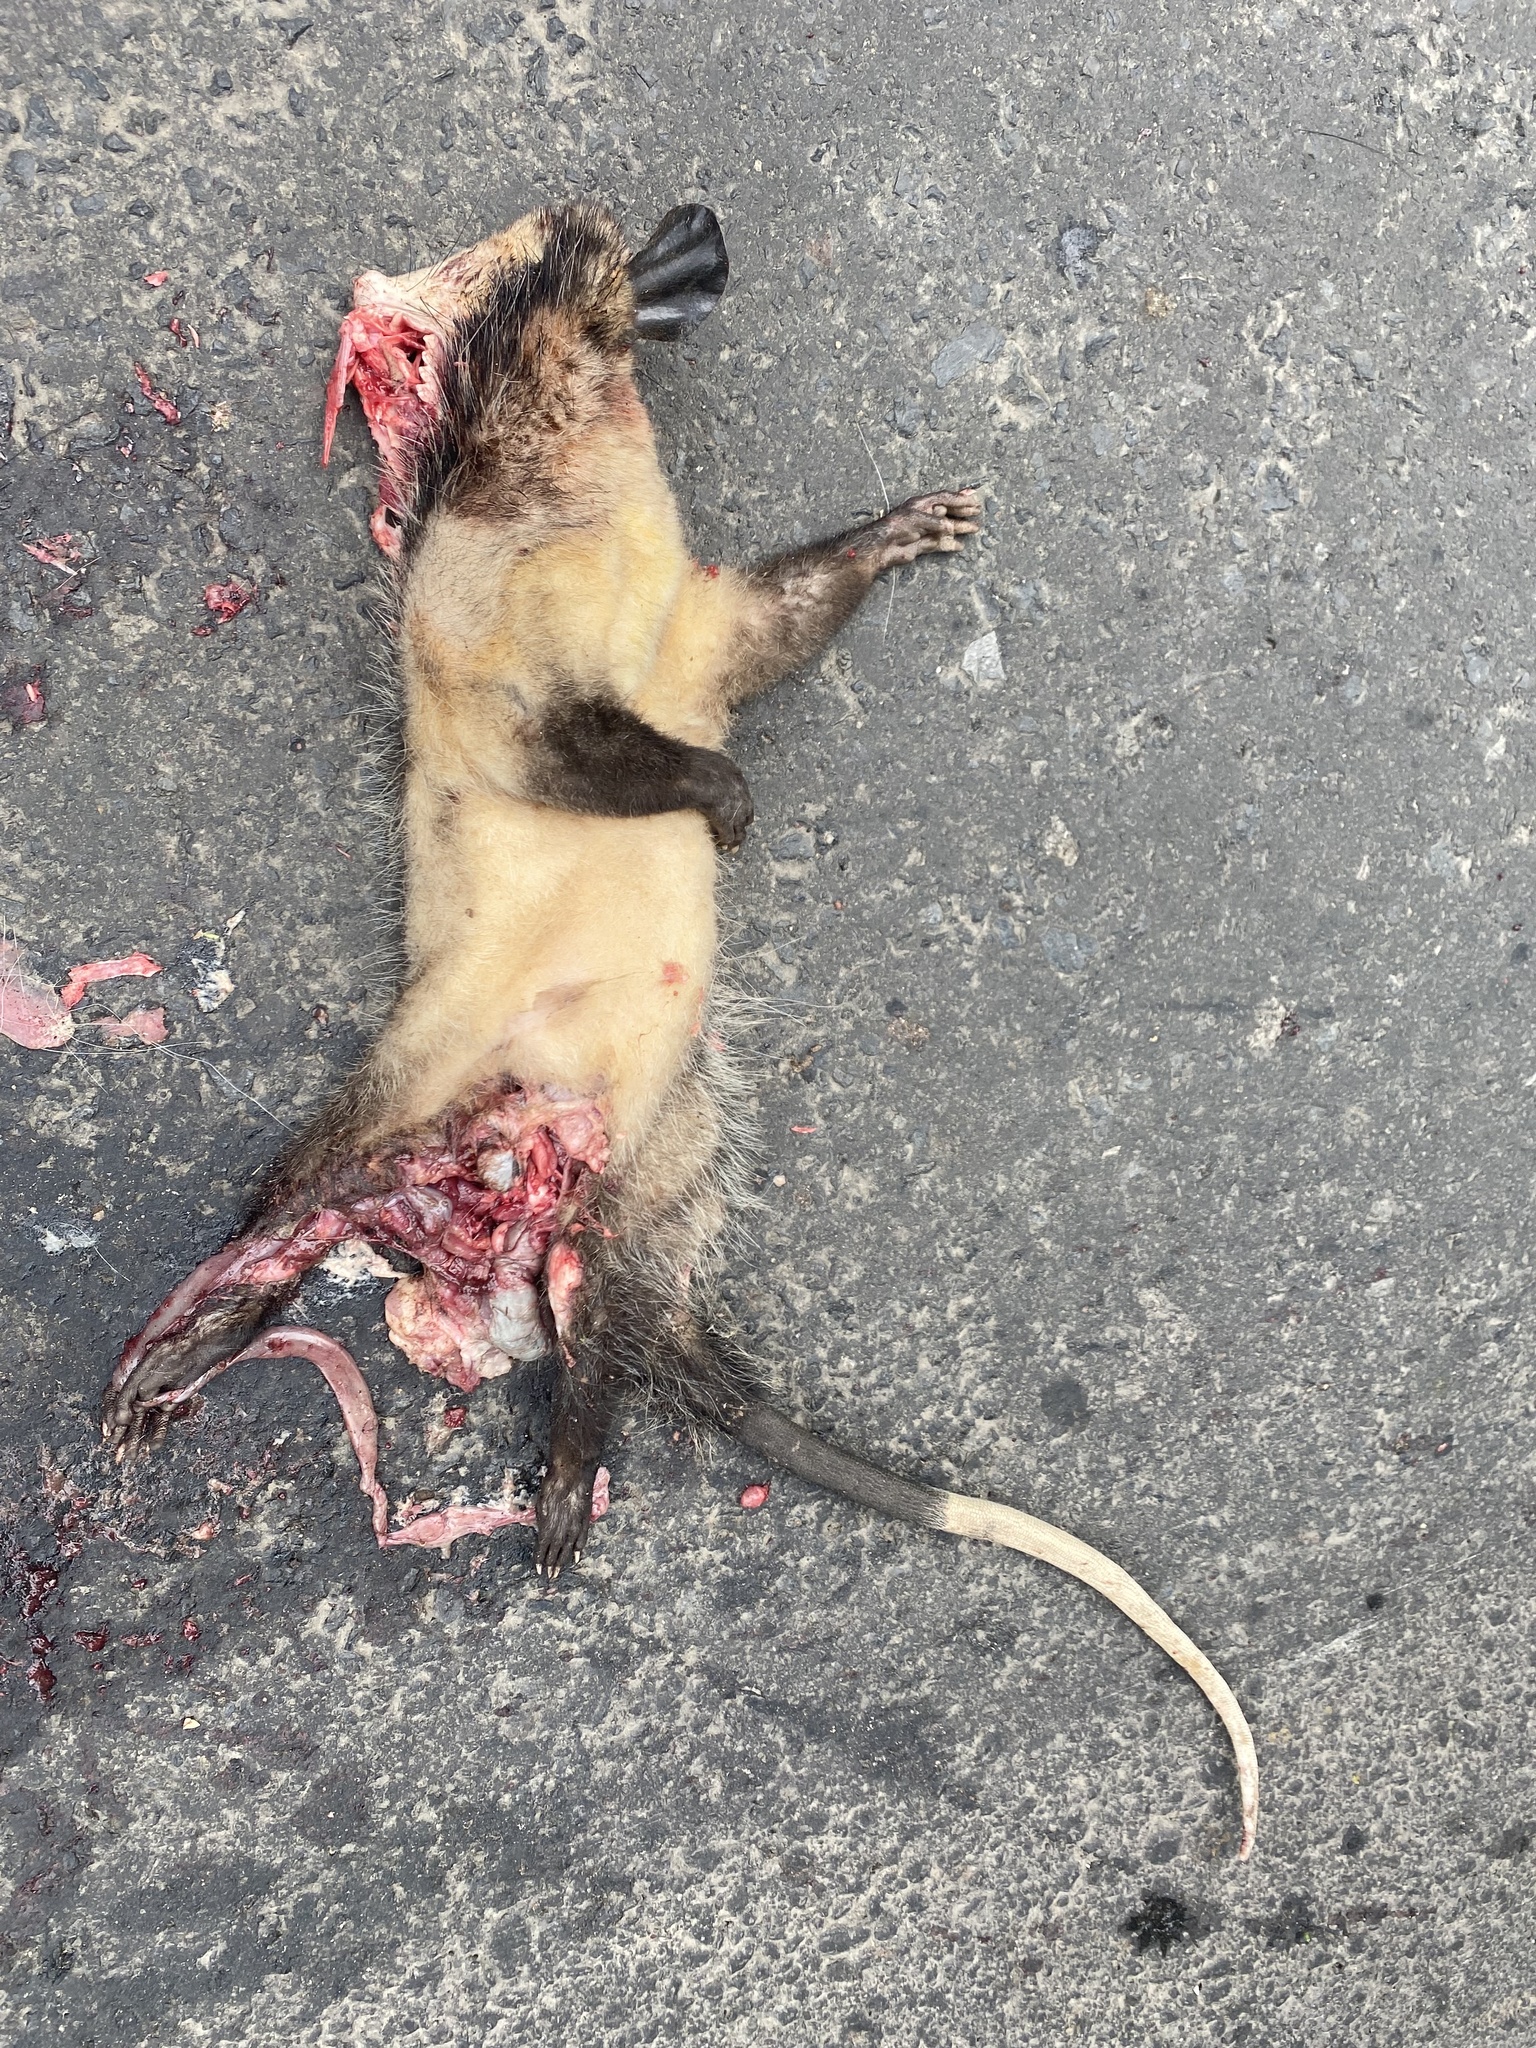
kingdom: Animalia
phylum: Chordata
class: Mammalia
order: Didelphimorphia
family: Didelphidae
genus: Didelphis
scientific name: Didelphis marsupialis
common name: Common opossum
